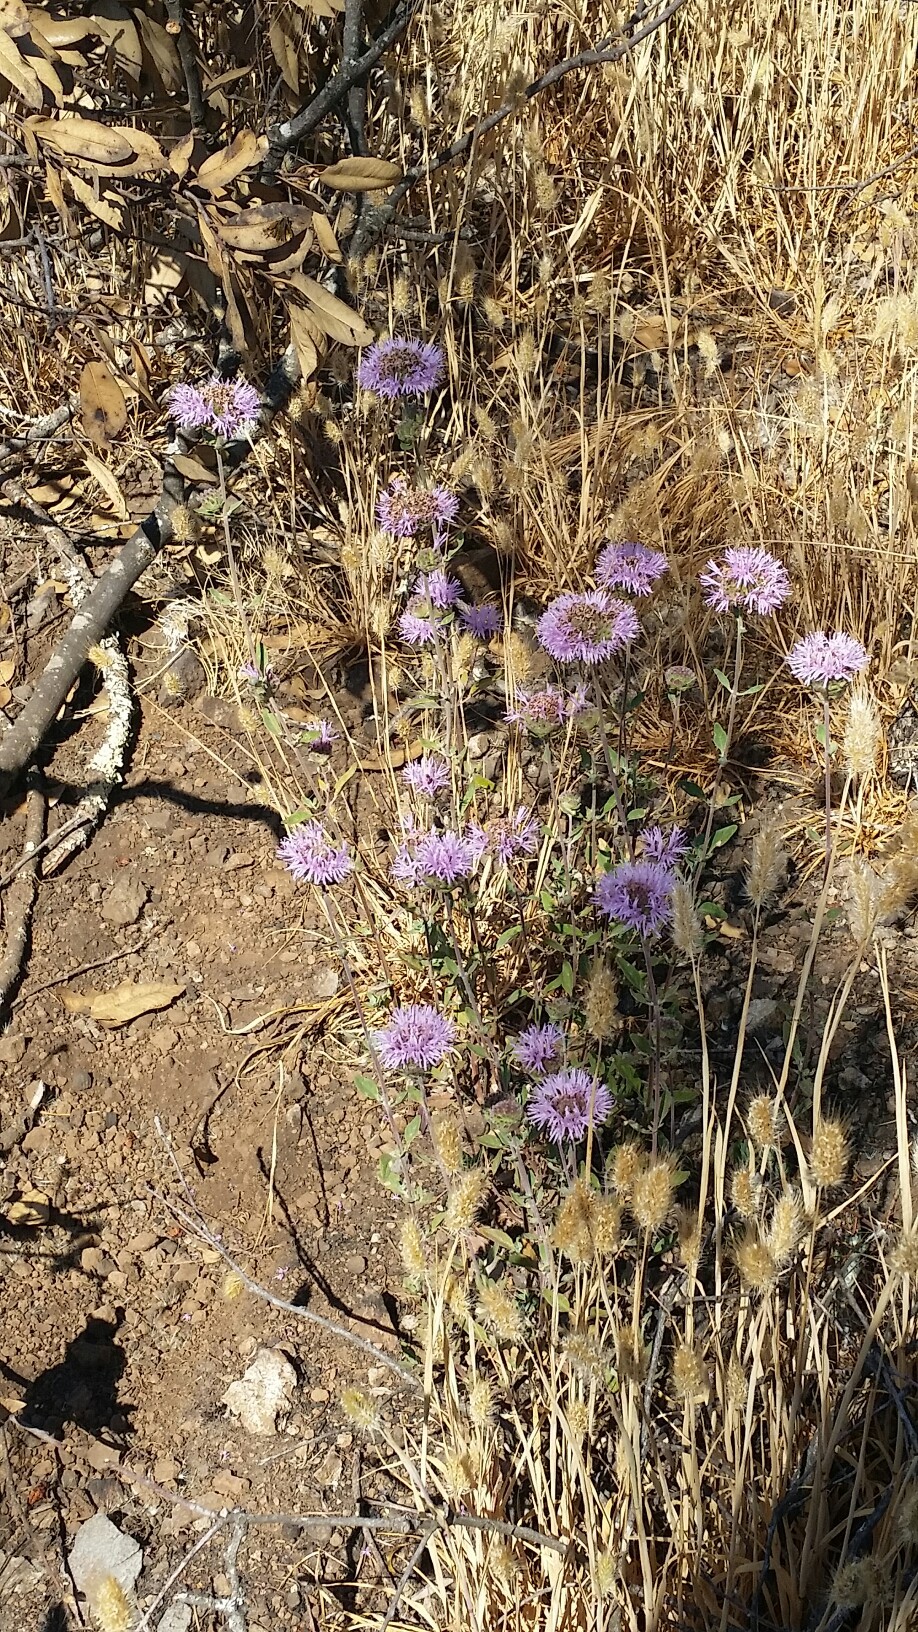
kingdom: Plantae
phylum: Tracheophyta
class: Magnoliopsida
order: Lamiales
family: Lamiaceae
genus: Monardella
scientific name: Monardella odoratissima
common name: Pacific monardella
